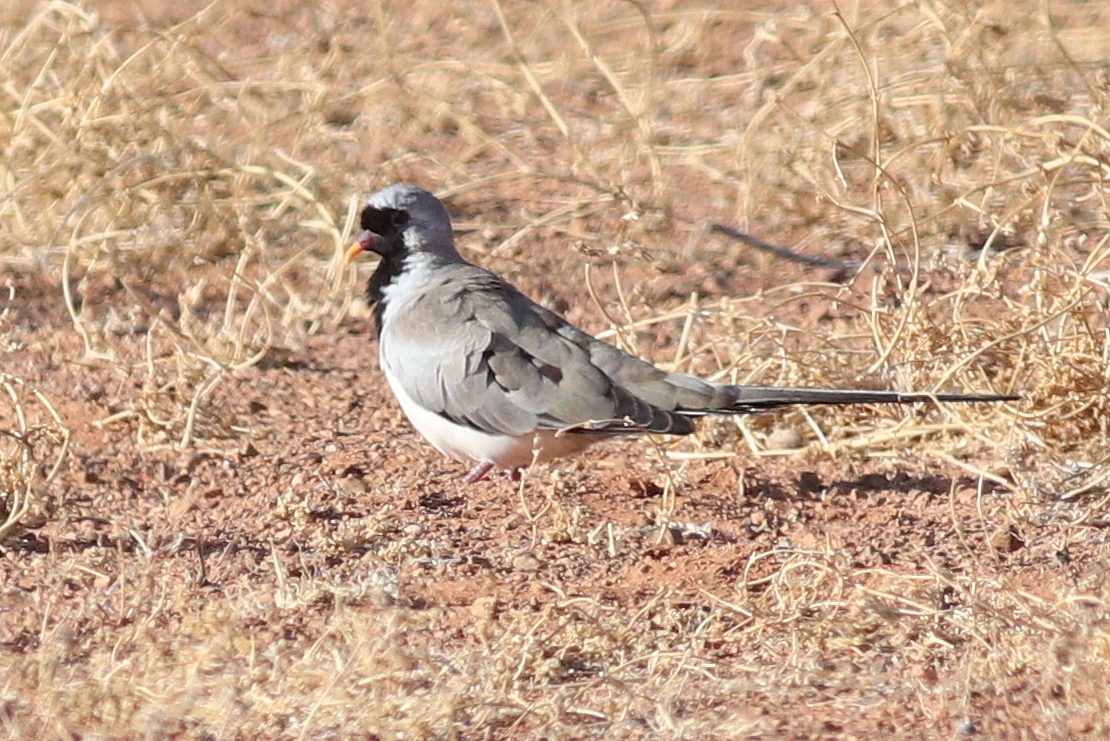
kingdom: Animalia
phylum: Chordata
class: Aves
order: Columbiformes
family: Columbidae
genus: Oena
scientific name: Oena capensis
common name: Namaqua dove
